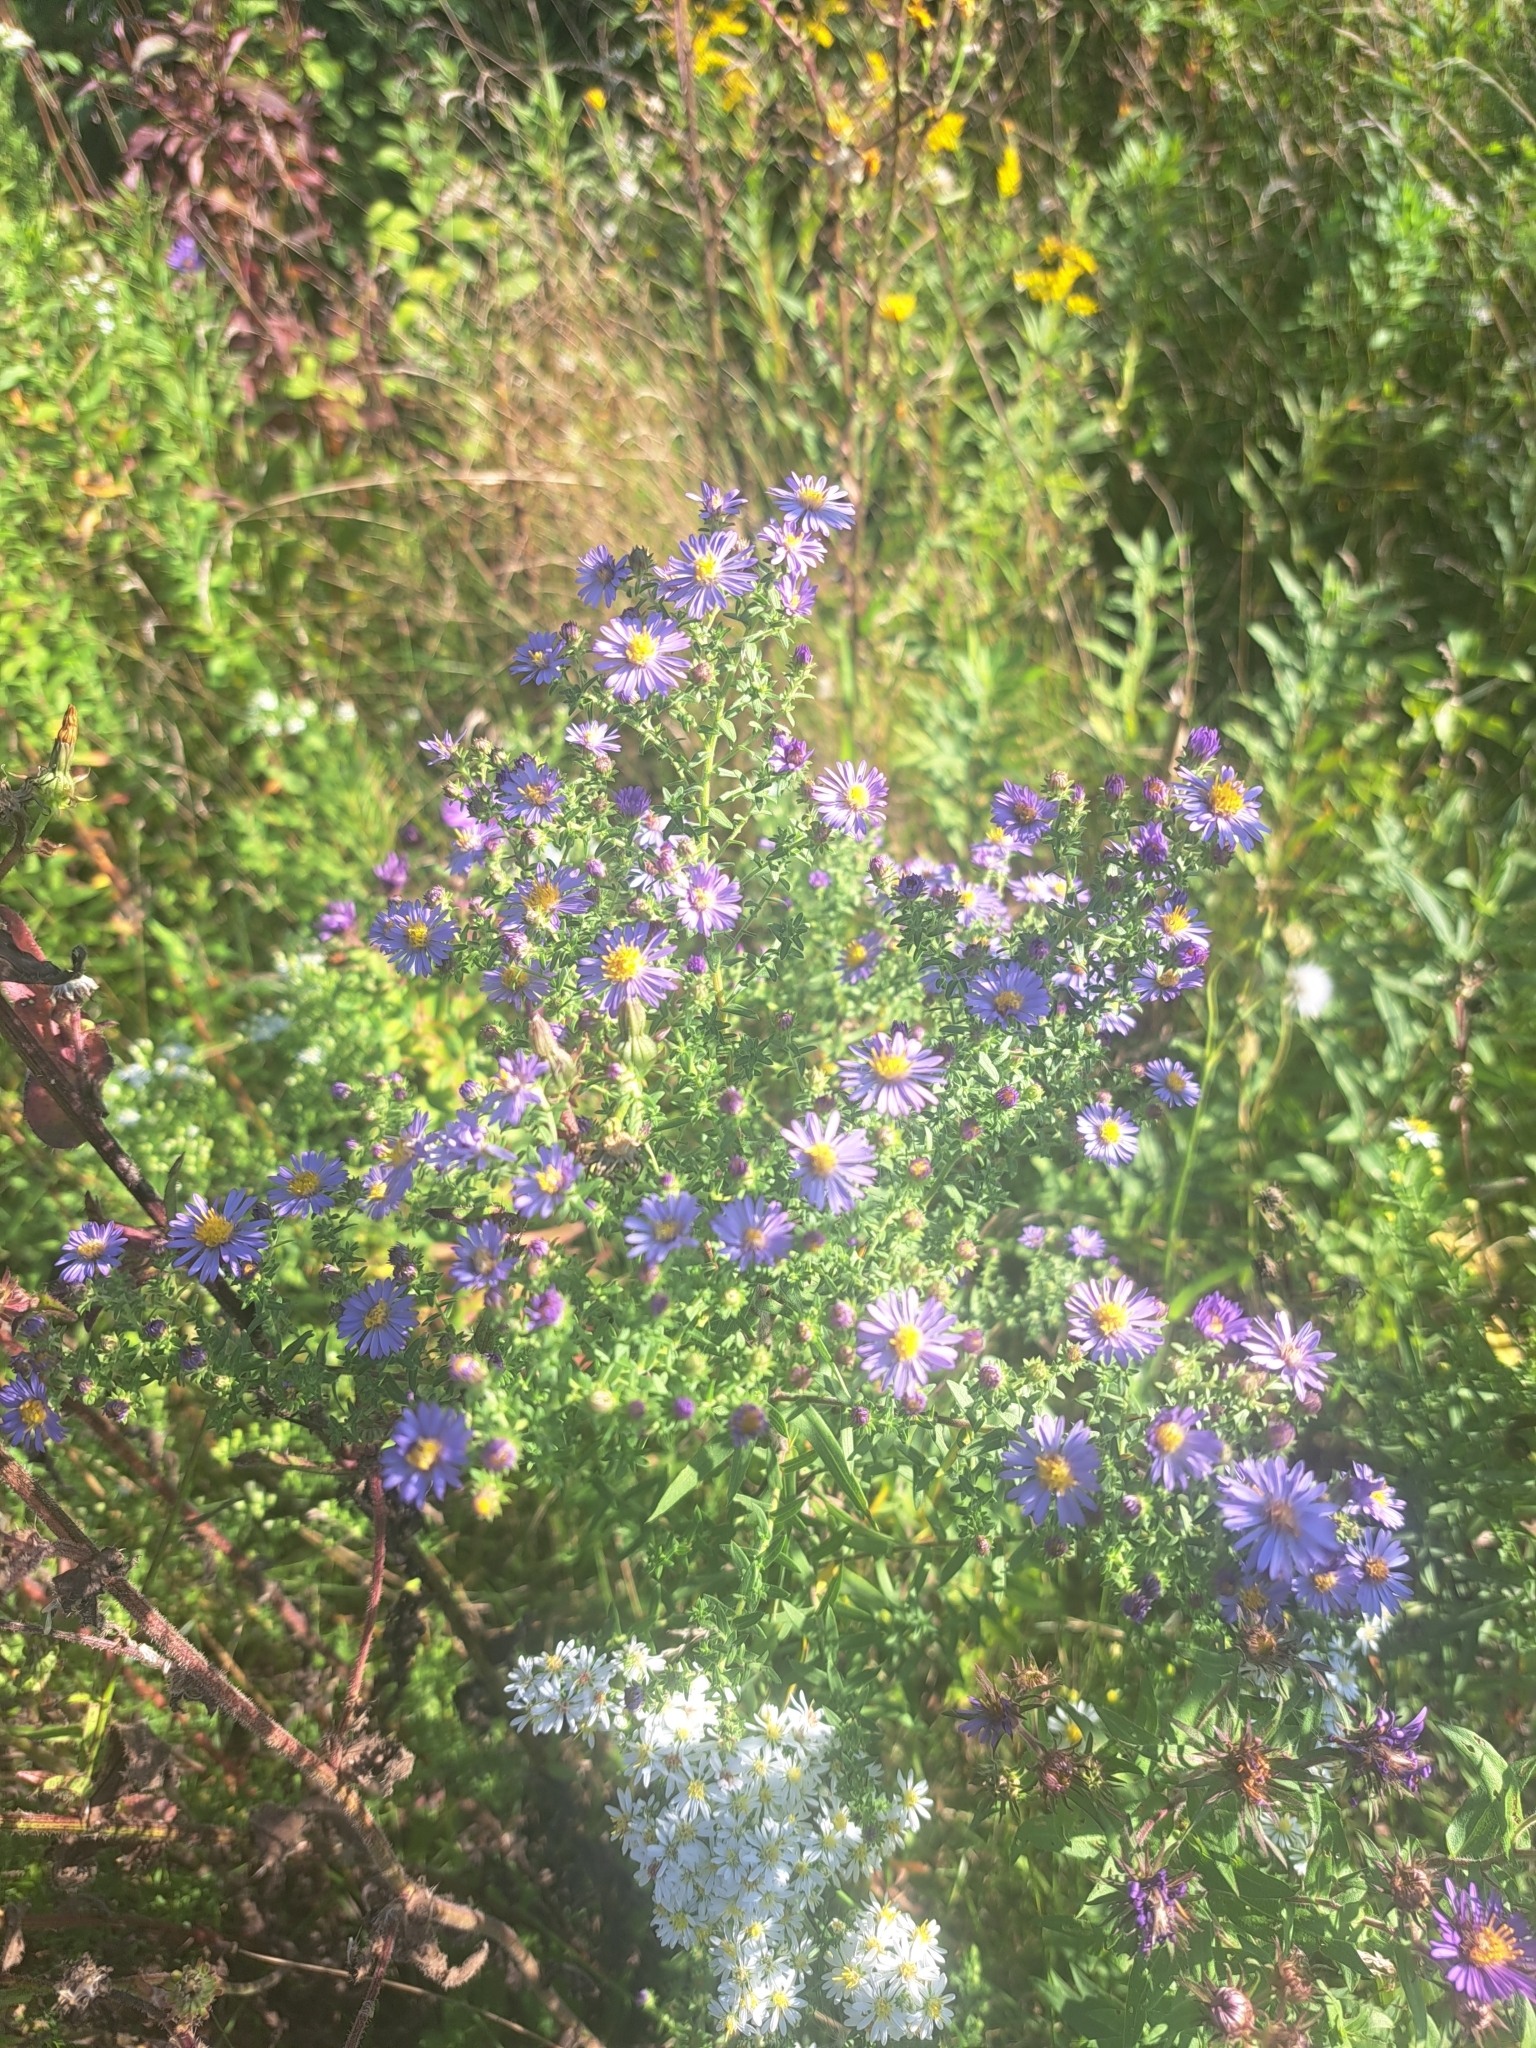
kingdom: Plantae
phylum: Tracheophyta
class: Magnoliopsida
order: Asterales
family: Asteraceae
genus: Symphyotrichum
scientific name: Symphyotrichum amethystinum
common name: Amethyst aster
